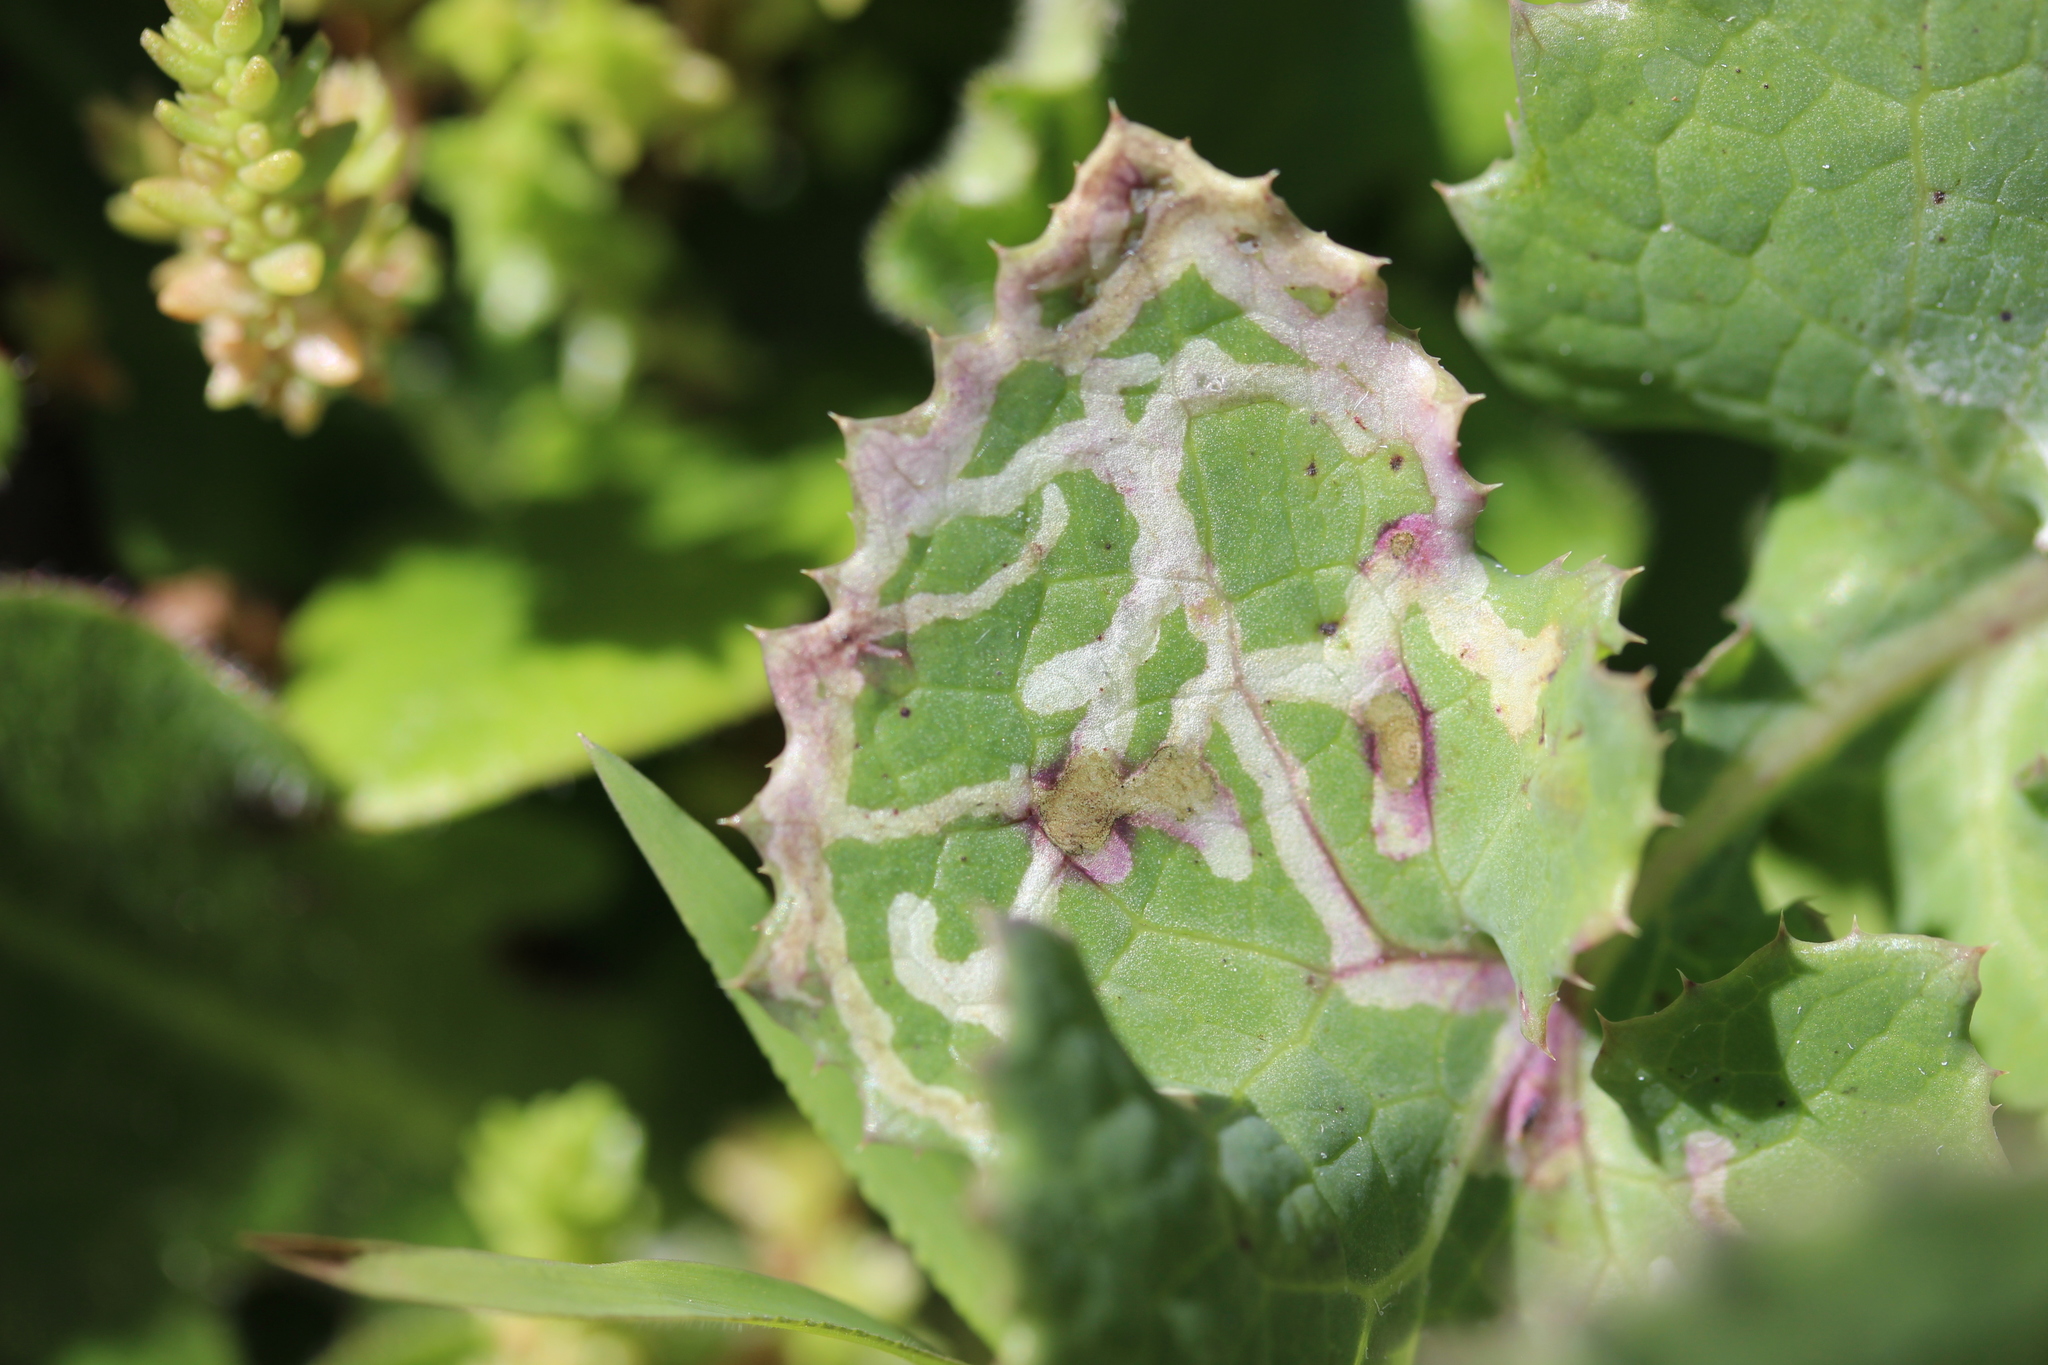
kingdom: Plantae
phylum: Tracheophyta
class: Magnoliopsida
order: Asterales
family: Asteraceae
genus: Sonchus
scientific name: Sonchus oleraceus
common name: Common sowthistle
